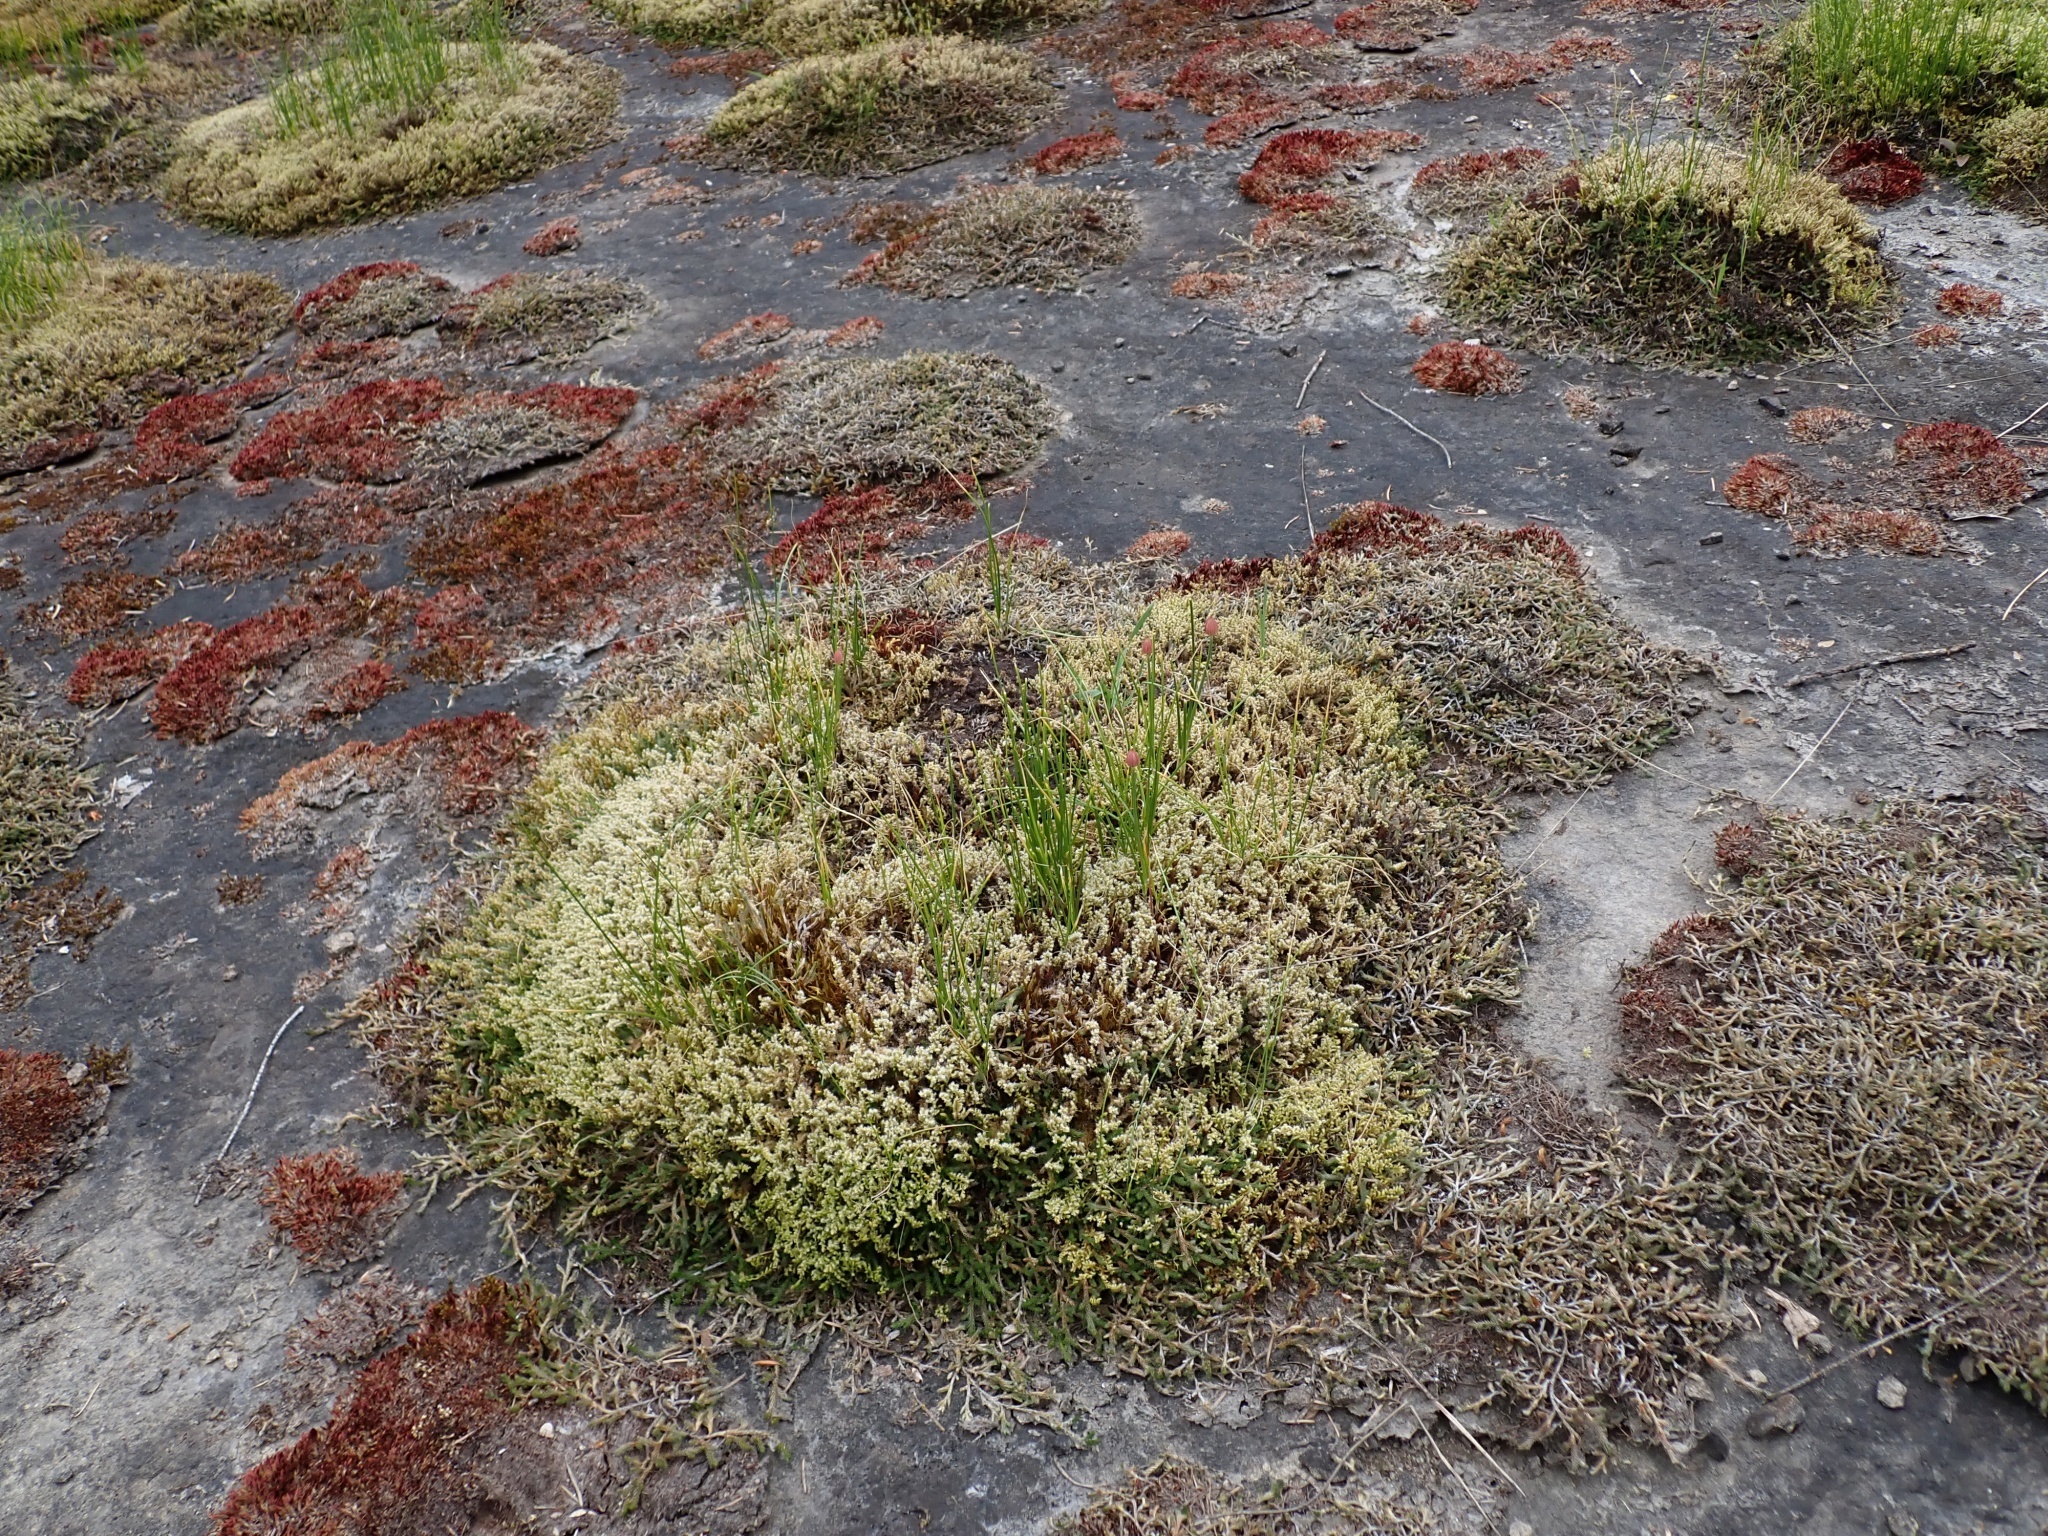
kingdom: Plantae
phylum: Tracheophyta
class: Liliopsida
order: Asparagales
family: Amaryllidaceae
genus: Allium
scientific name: Allium amplectens
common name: Narrow-leaved onion
